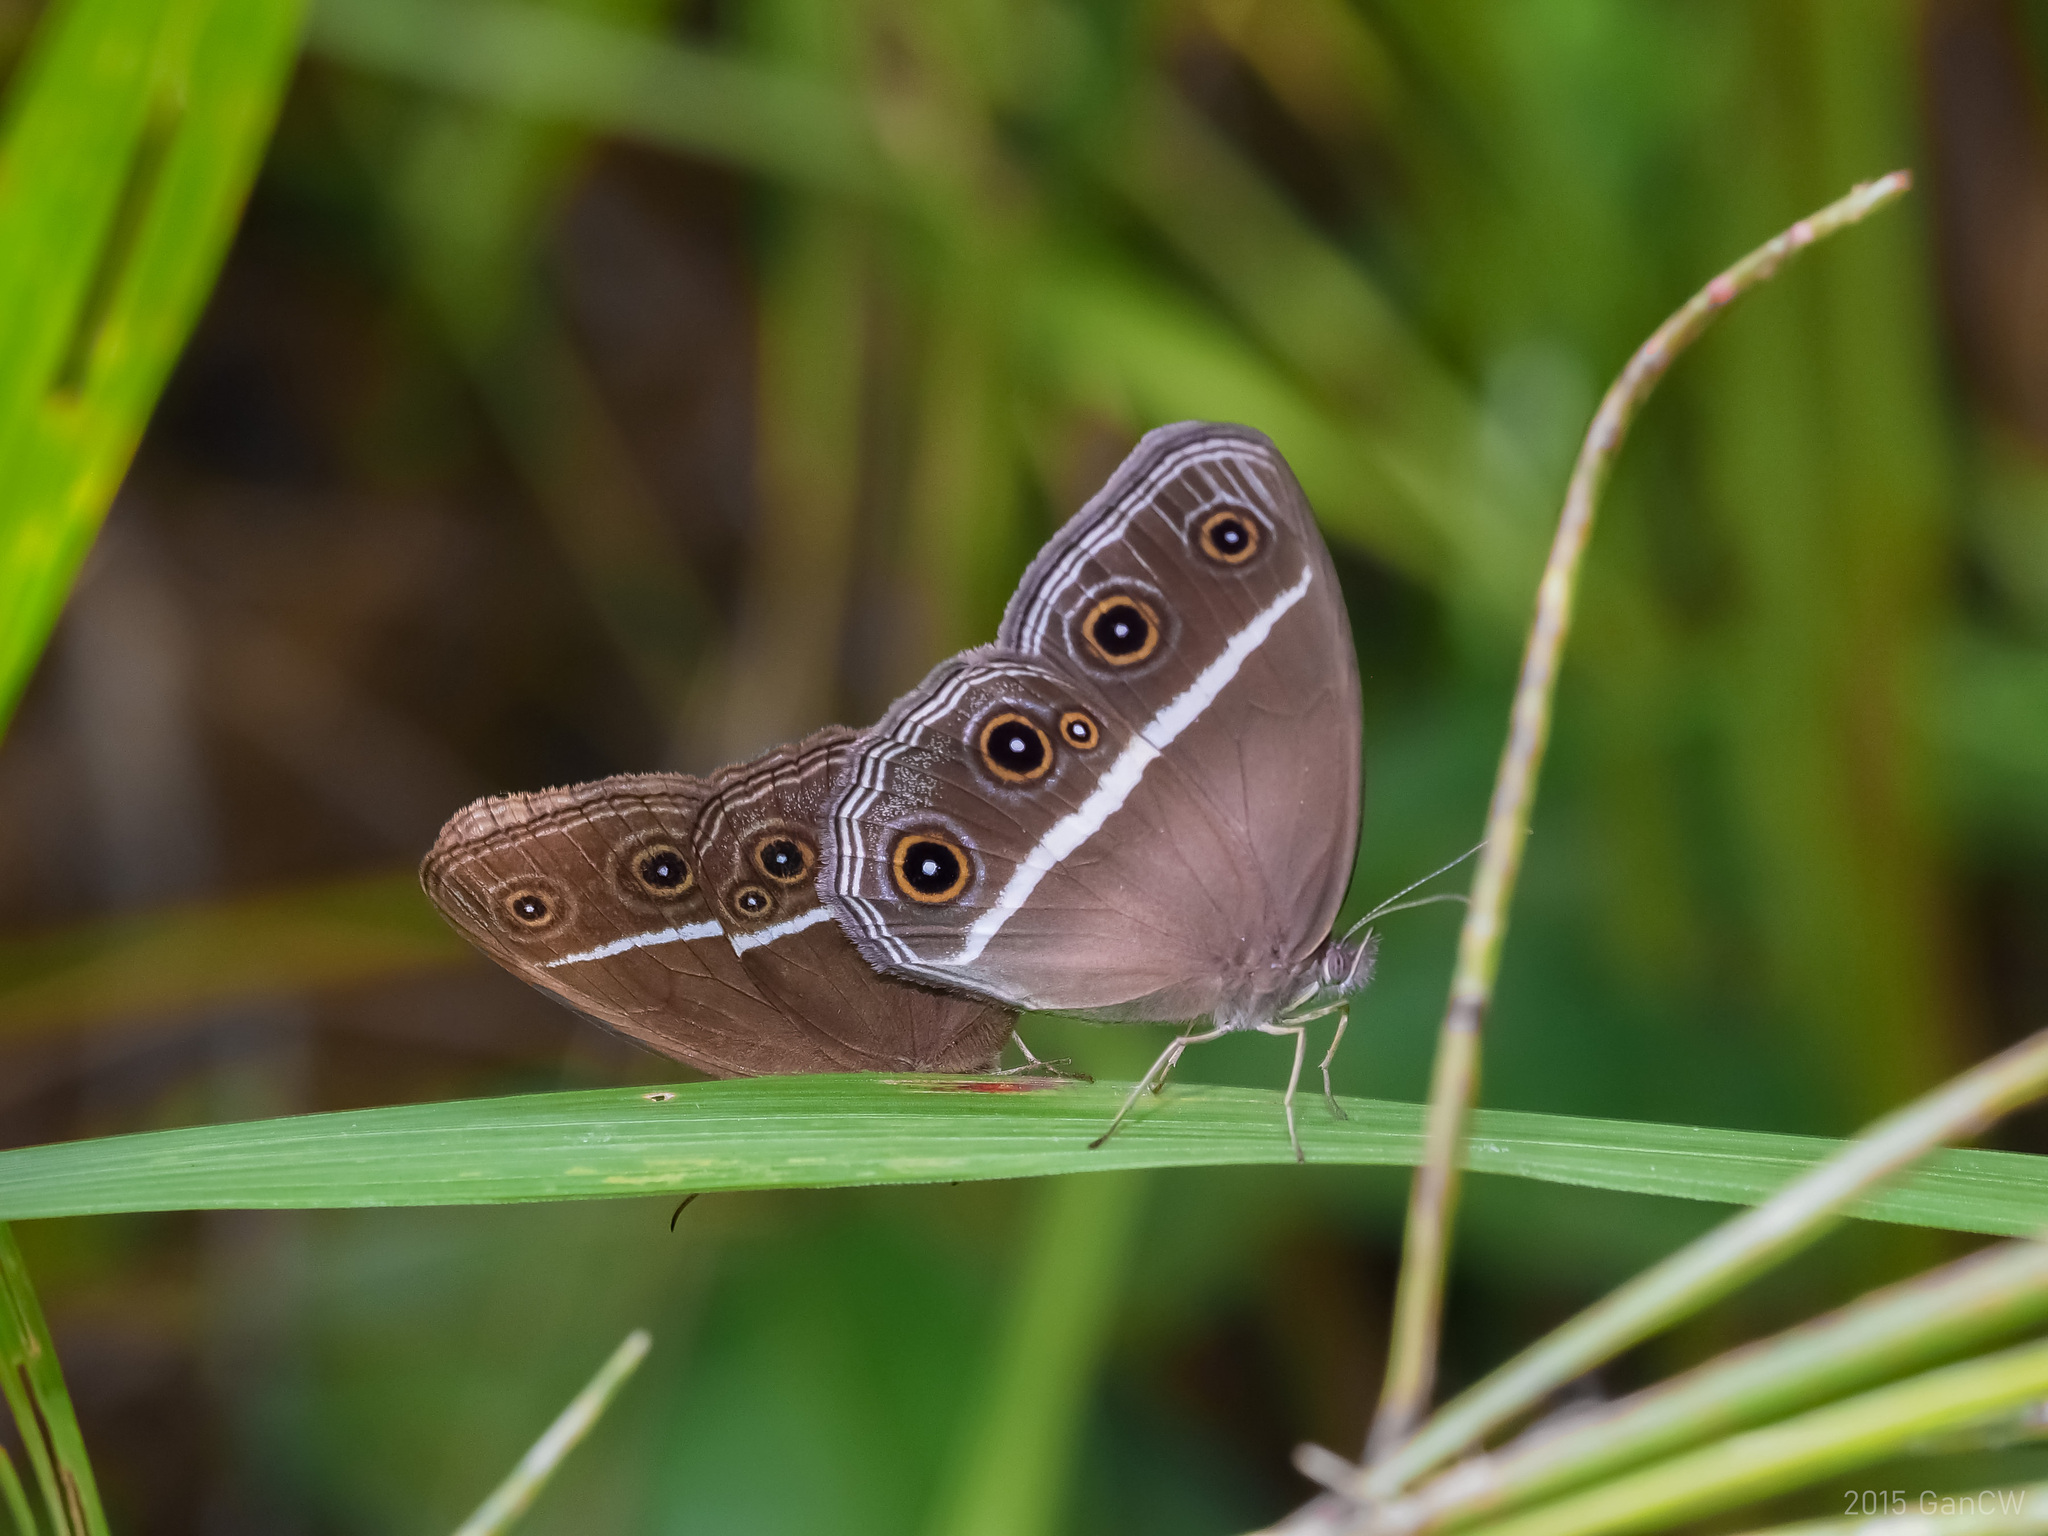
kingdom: Animalia
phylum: Arthropoda
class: Insecta
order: Lepidoptera
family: Nymphalidae
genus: Orsotriaena
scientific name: Orsotriaena medus
